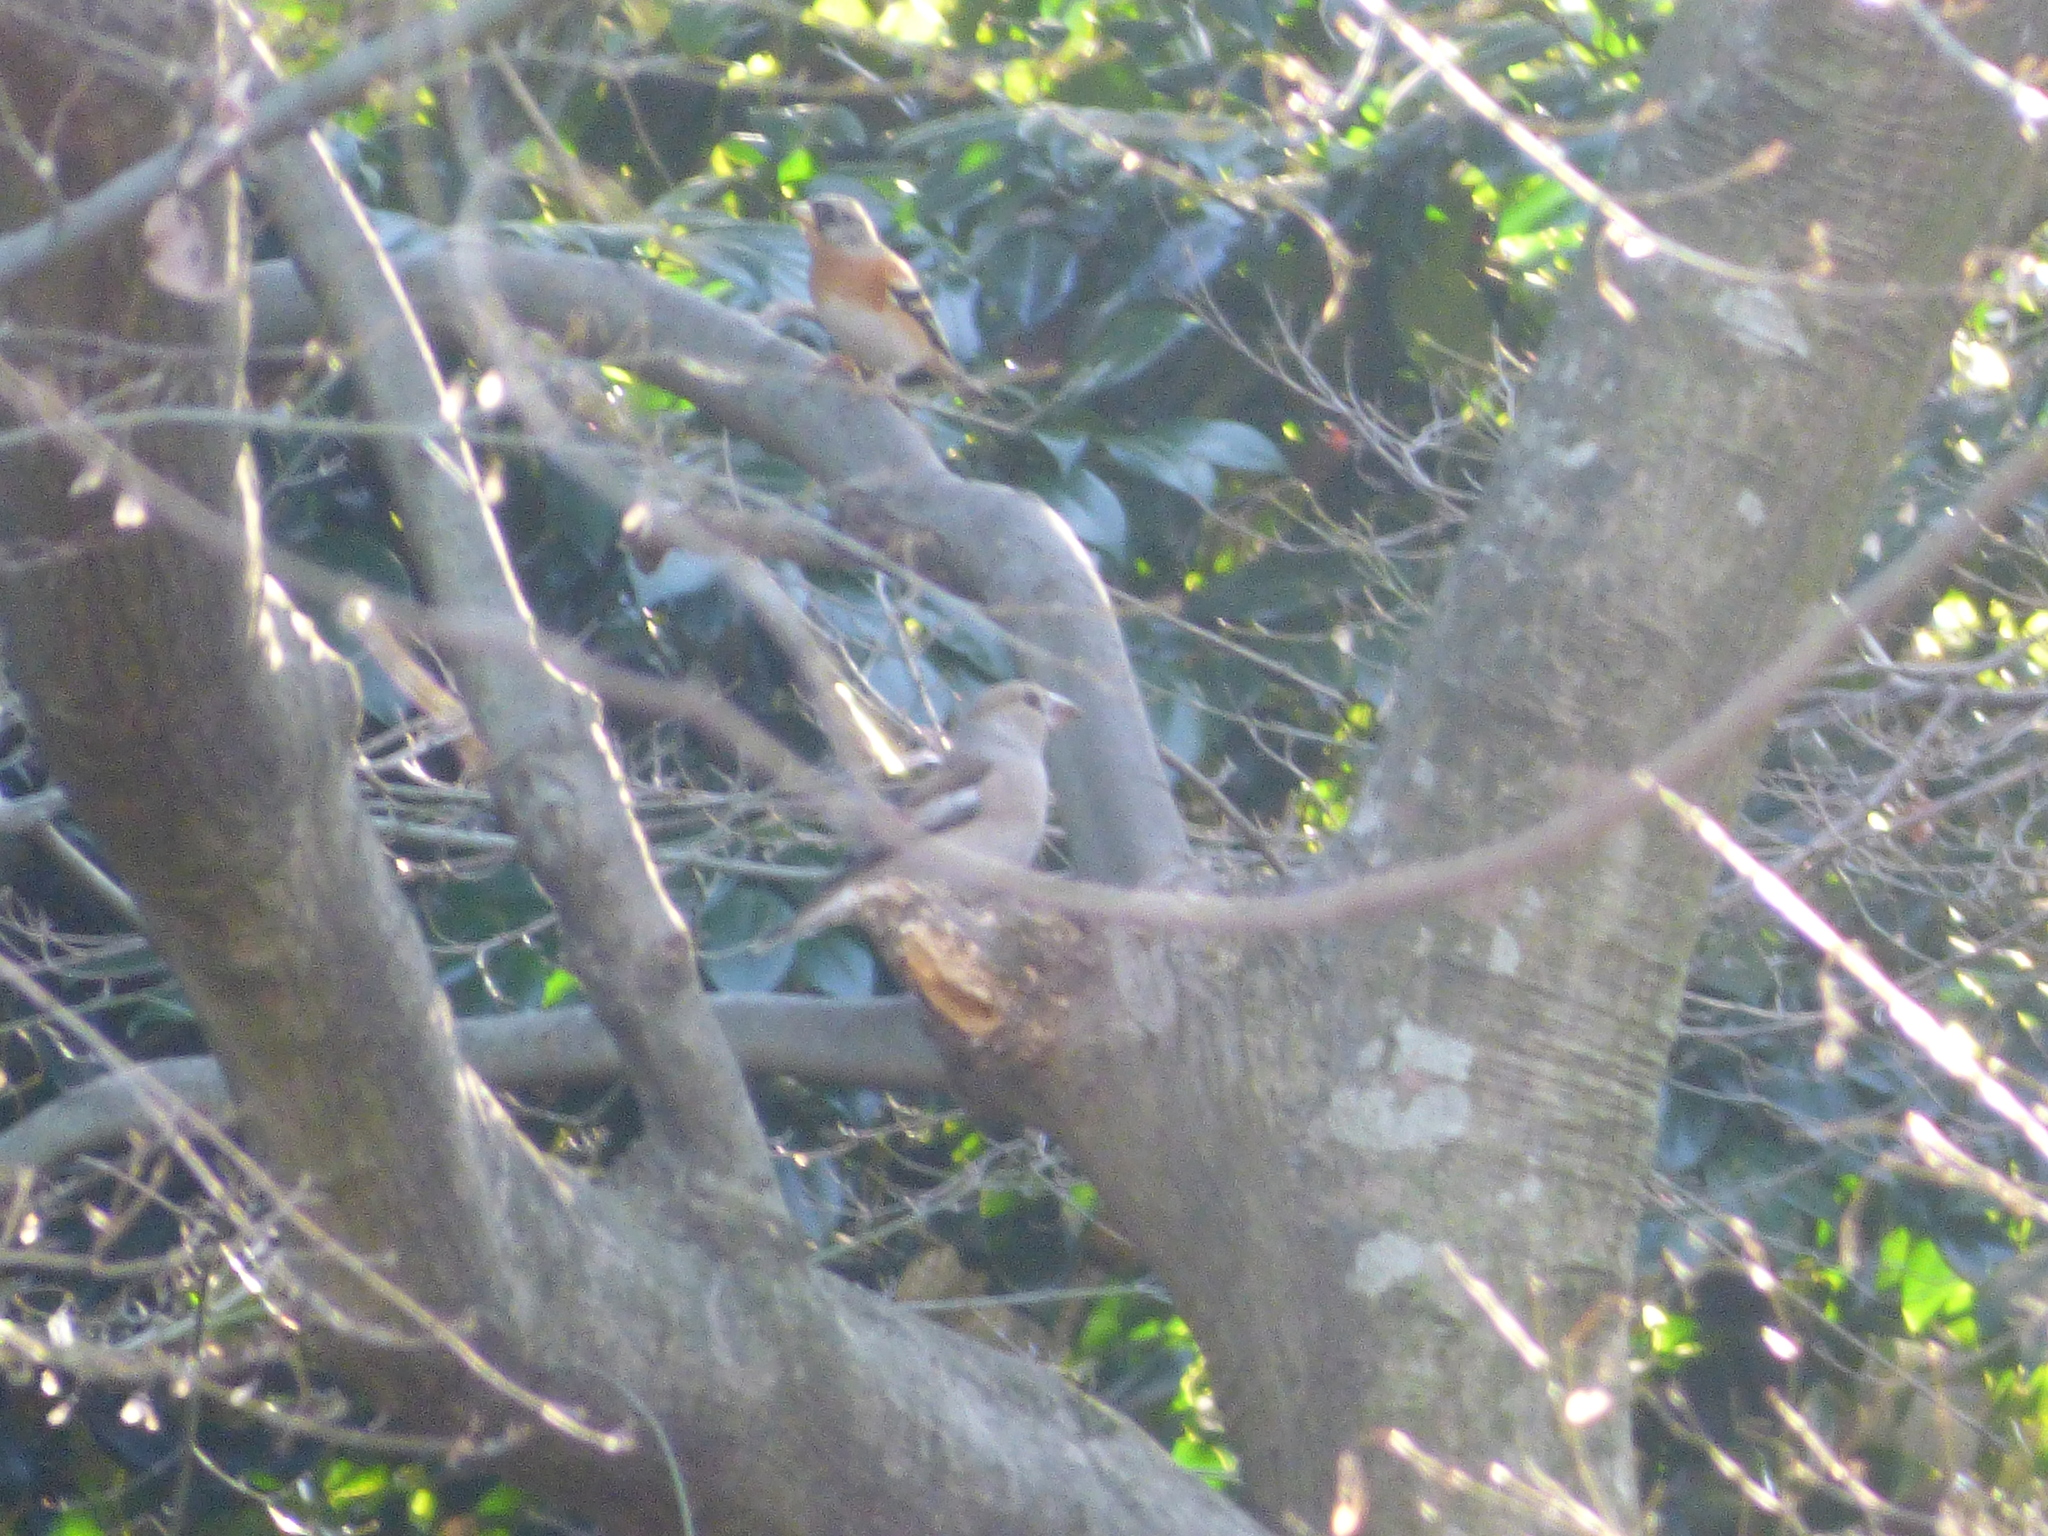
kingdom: Animalia
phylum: Chordata
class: Aves
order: Passeriformes
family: Fringillidae
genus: Fringilla
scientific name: Fringilla montifringilla
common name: Brambling
